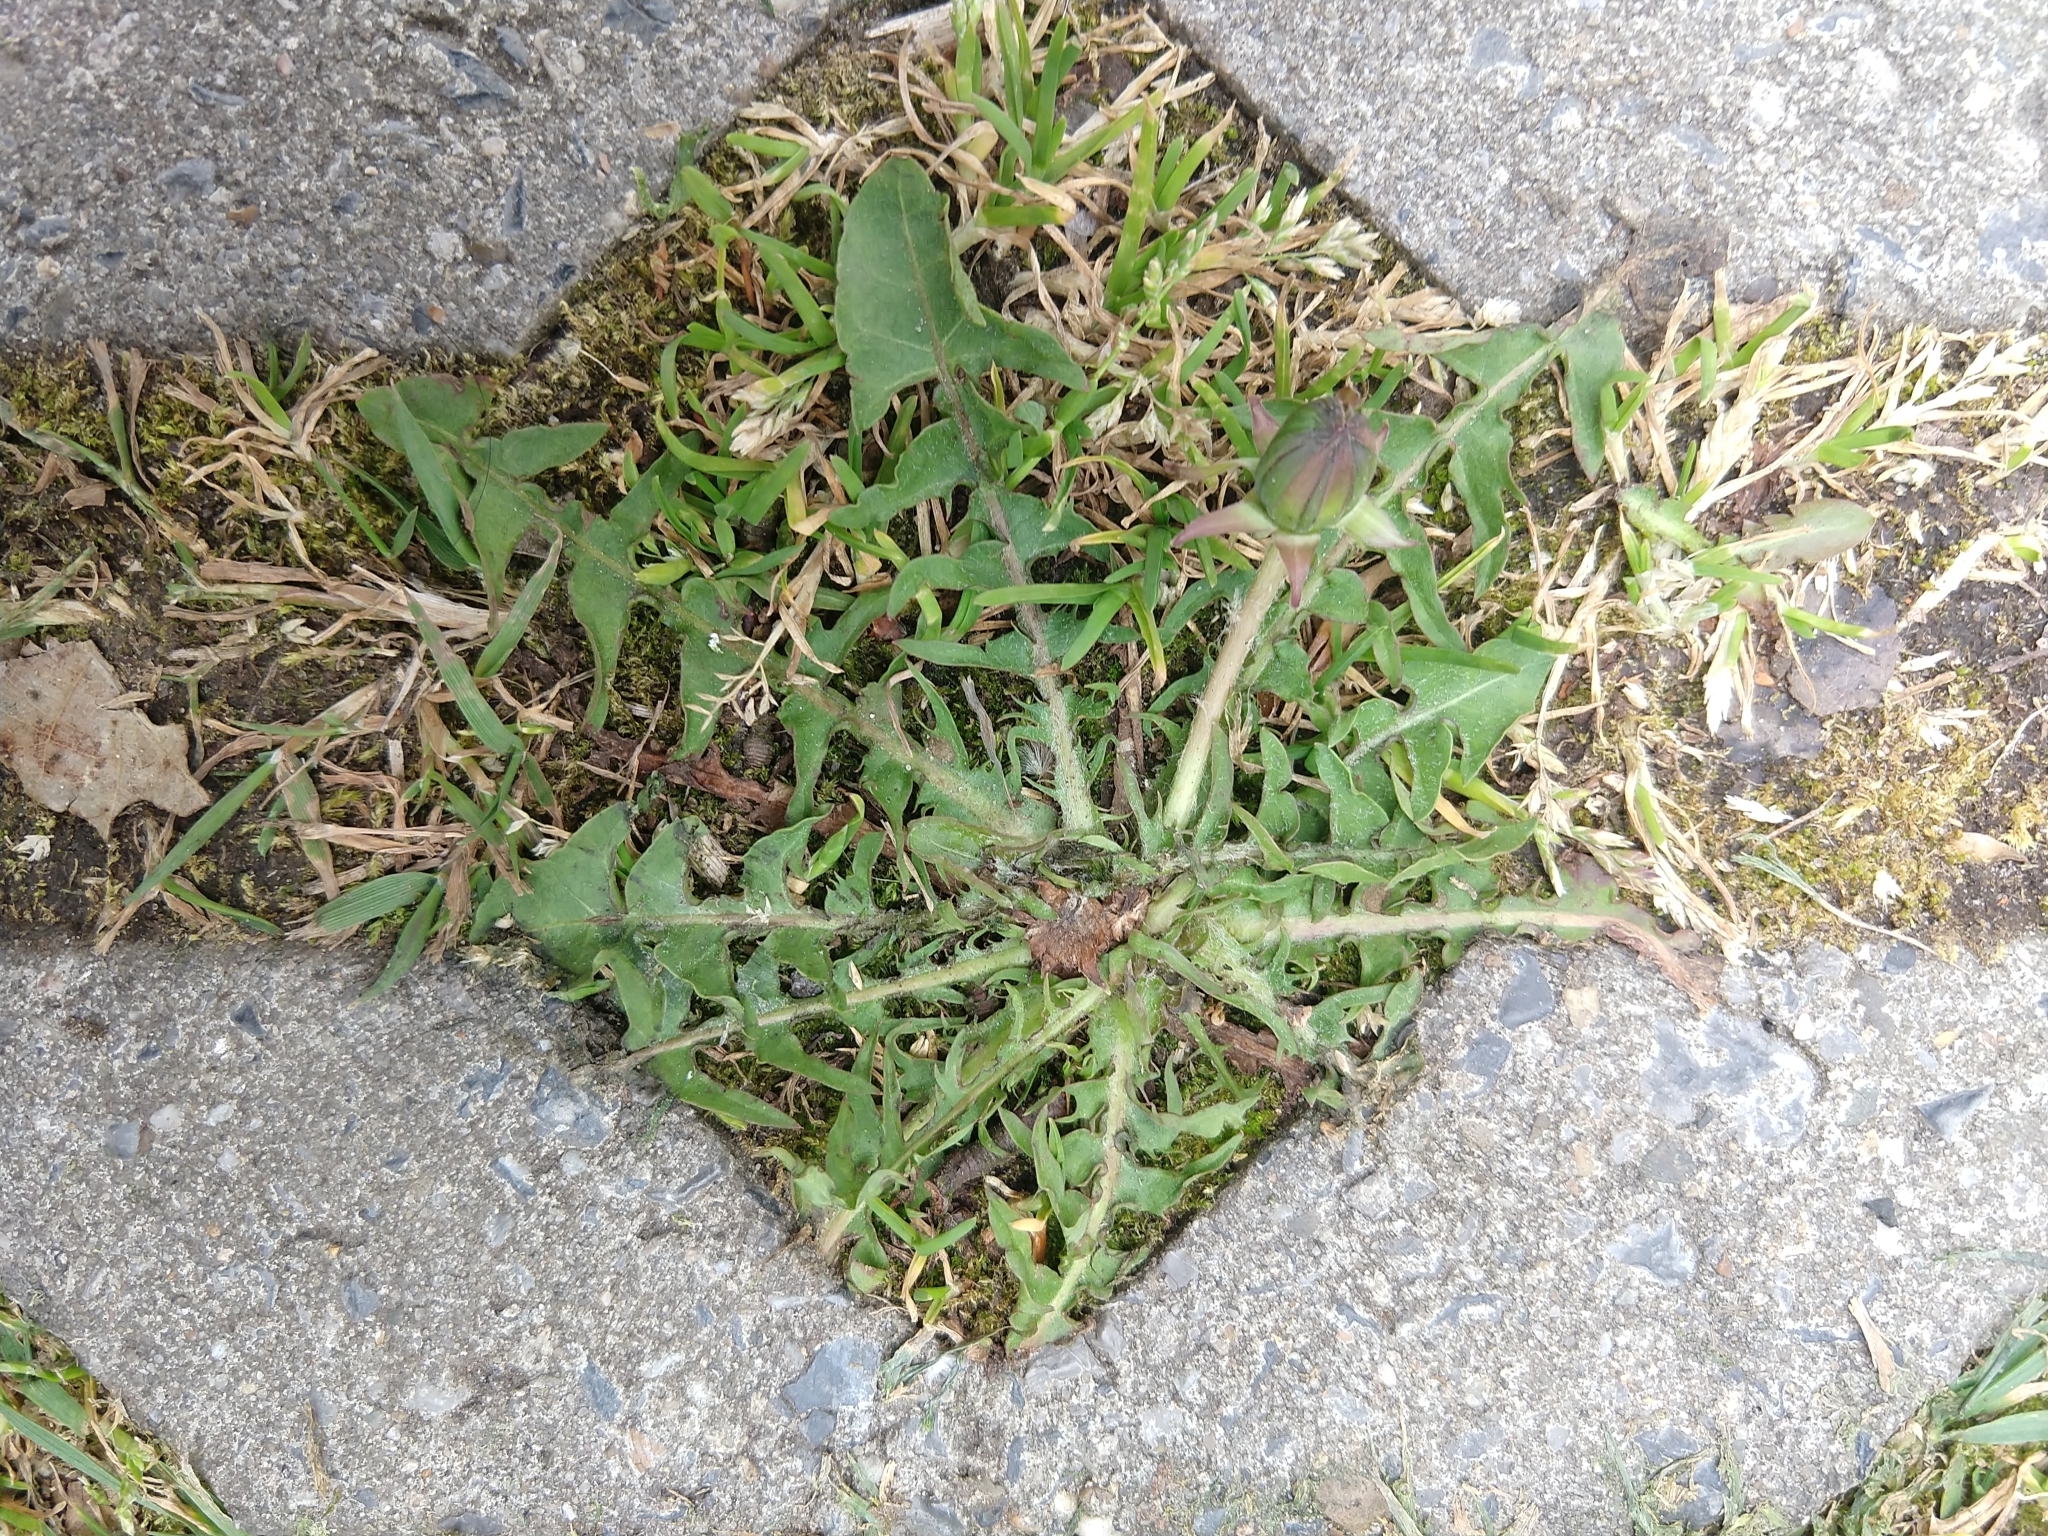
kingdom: Plantae
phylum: Tracheophyta
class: Magnoliopsida
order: Asterales
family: Asteraceae
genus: Taraxacum
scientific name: Taraxacum officinale
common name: Common dandelion
